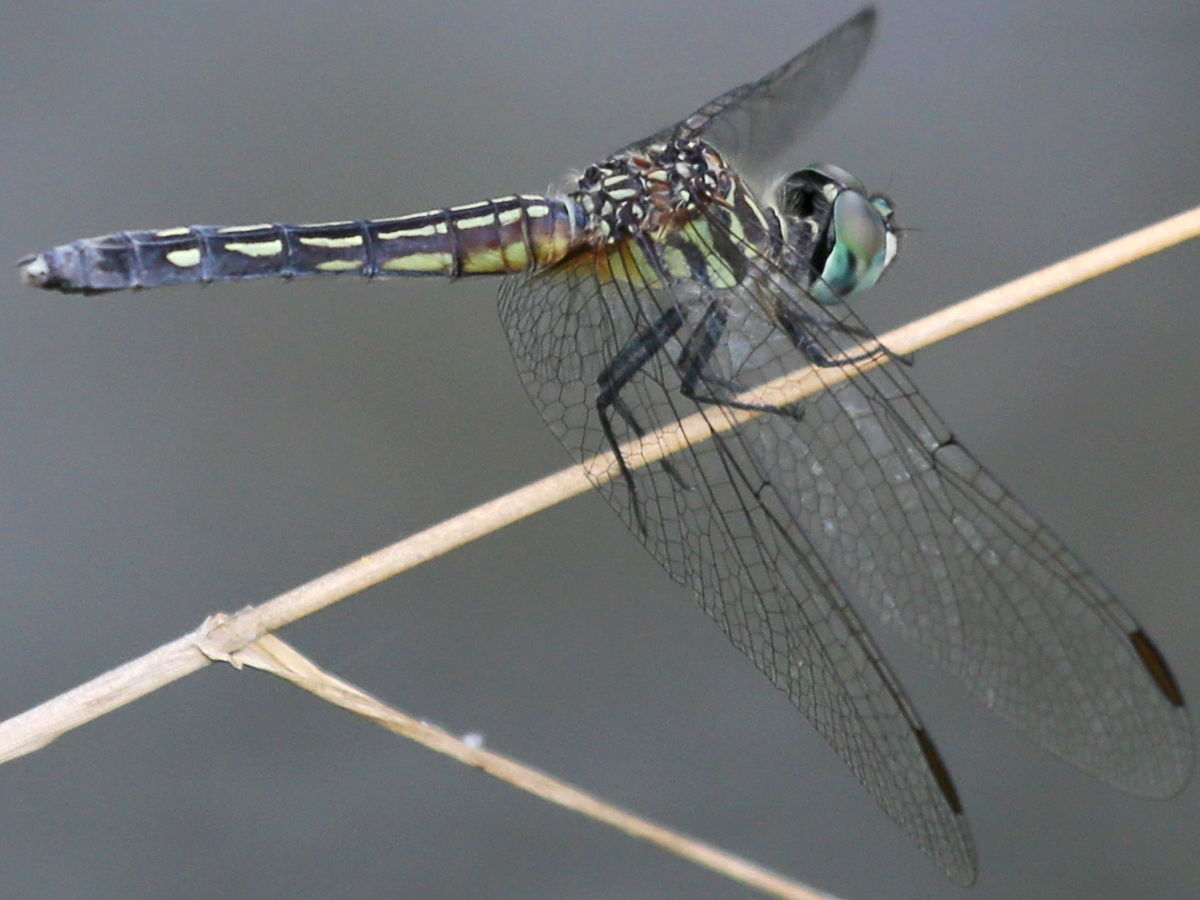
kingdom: Animalia
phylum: Arthropoda
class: Insecta
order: Odonata
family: Libellulidae
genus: Pachydiplax
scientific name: Pachydiplax longipennis
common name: Blue dasher
